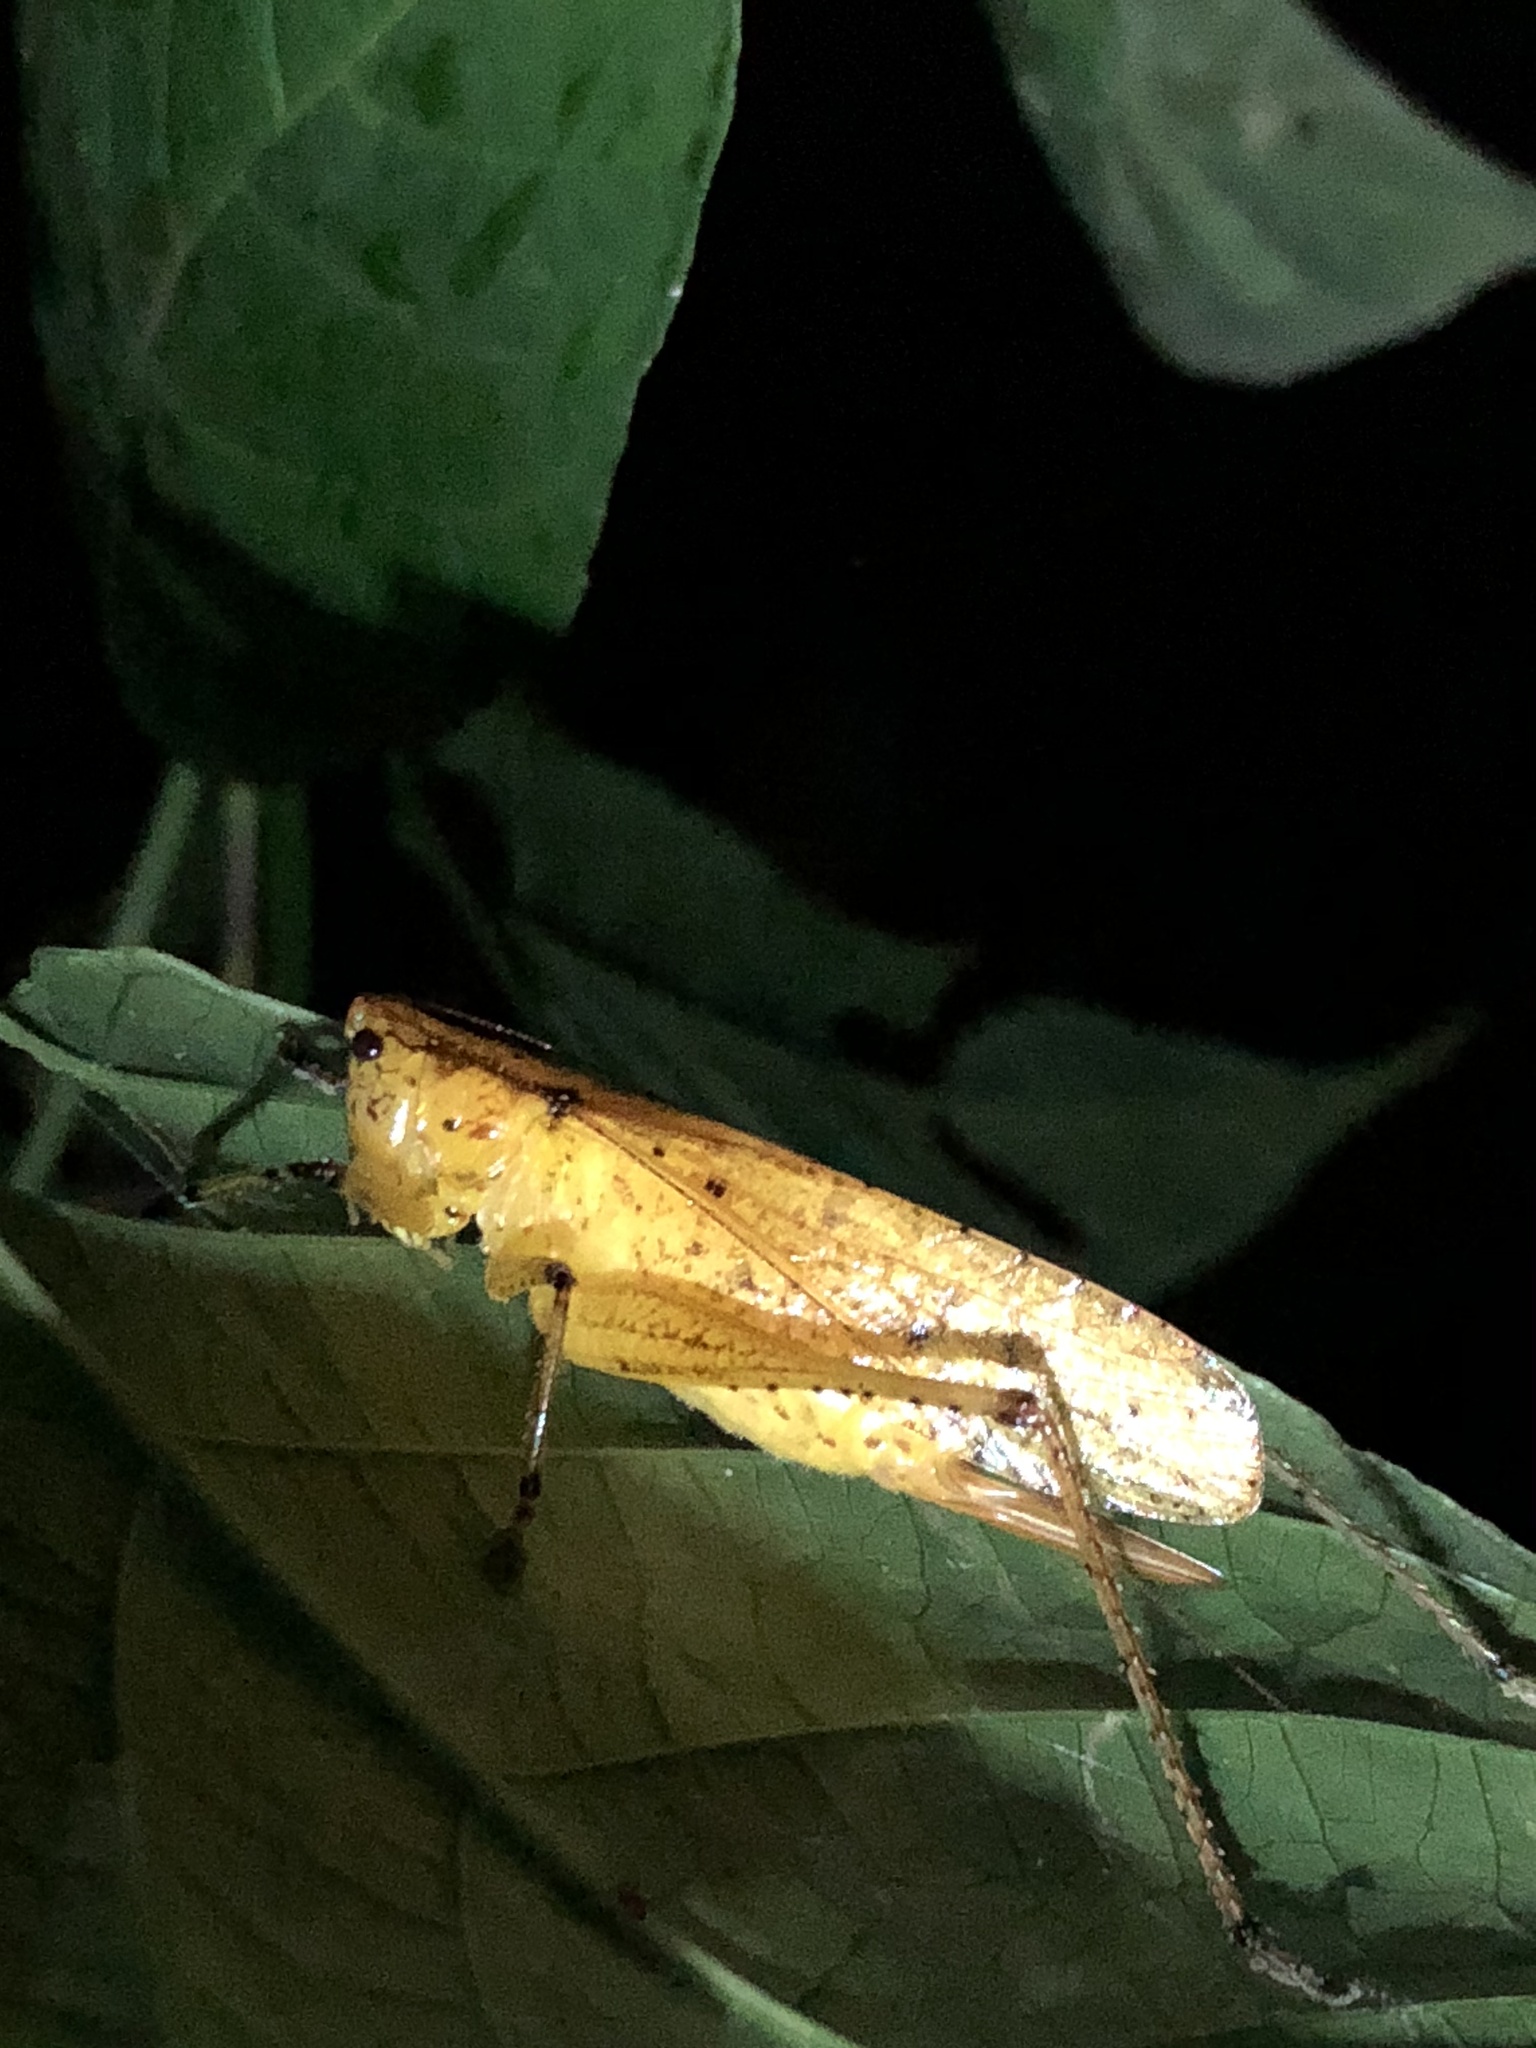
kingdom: Animalia
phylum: Arthropoda
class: Insecta
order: Orthoptera
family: Tettigoniidae
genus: Neoconocephalus
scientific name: Neoconocephalus stigmaticus
